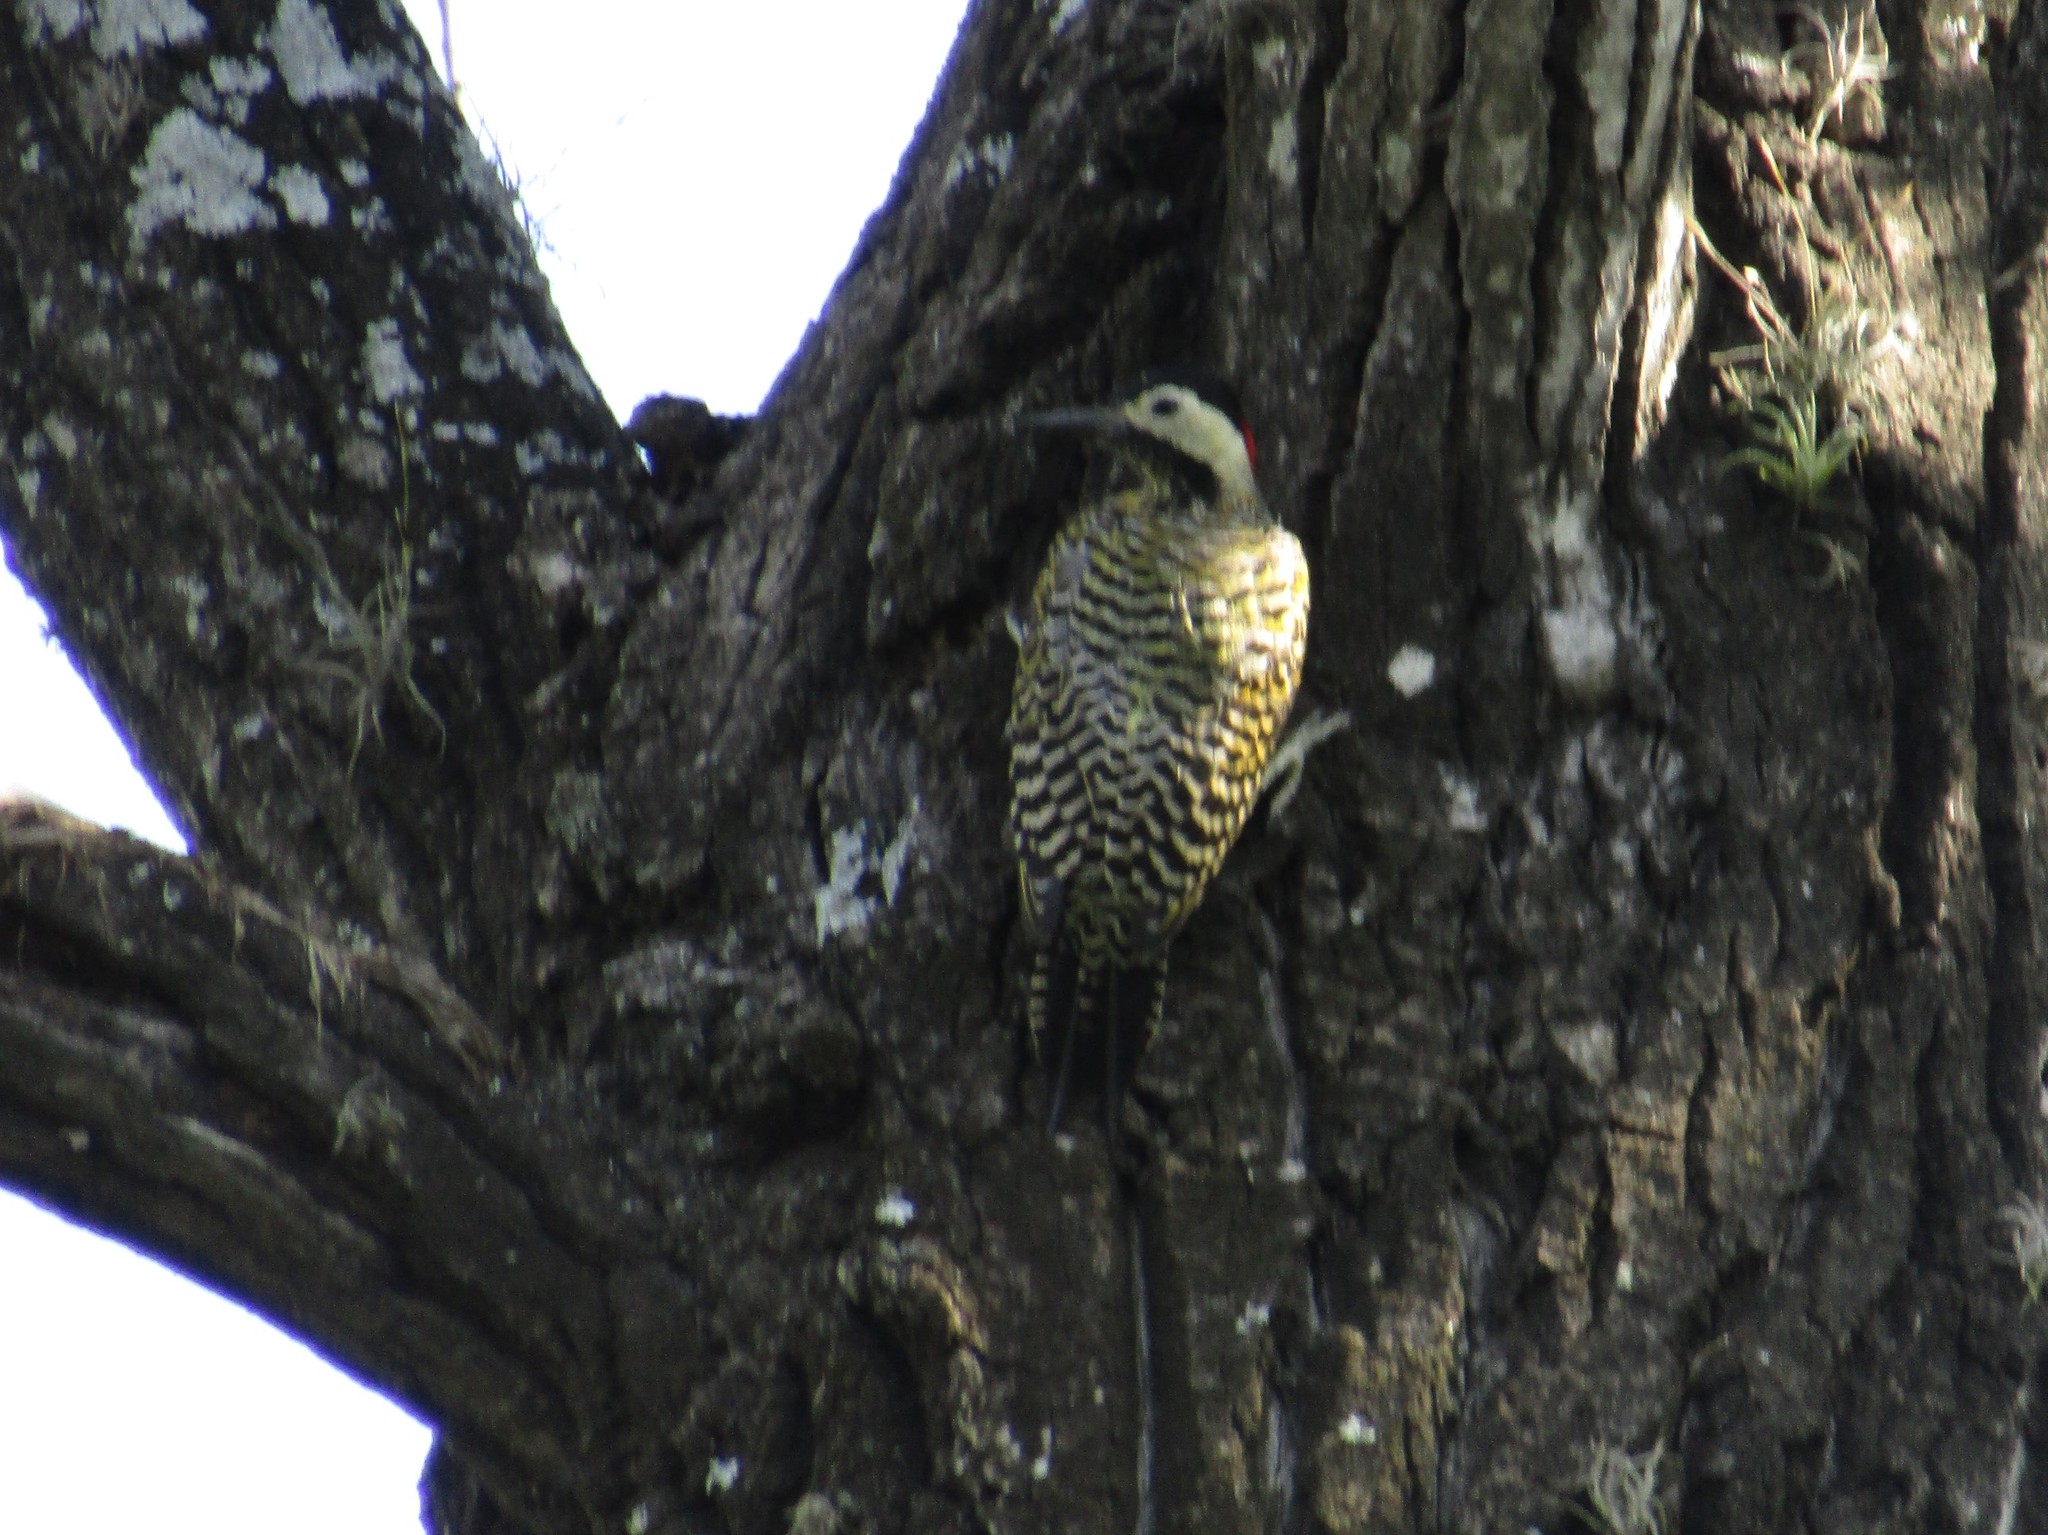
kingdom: Animalia
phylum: Chordata
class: Aves
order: Piciformes
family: Picidae
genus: Colaptes
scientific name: Colaptes melanochloros
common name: Green-barred woodpecker
